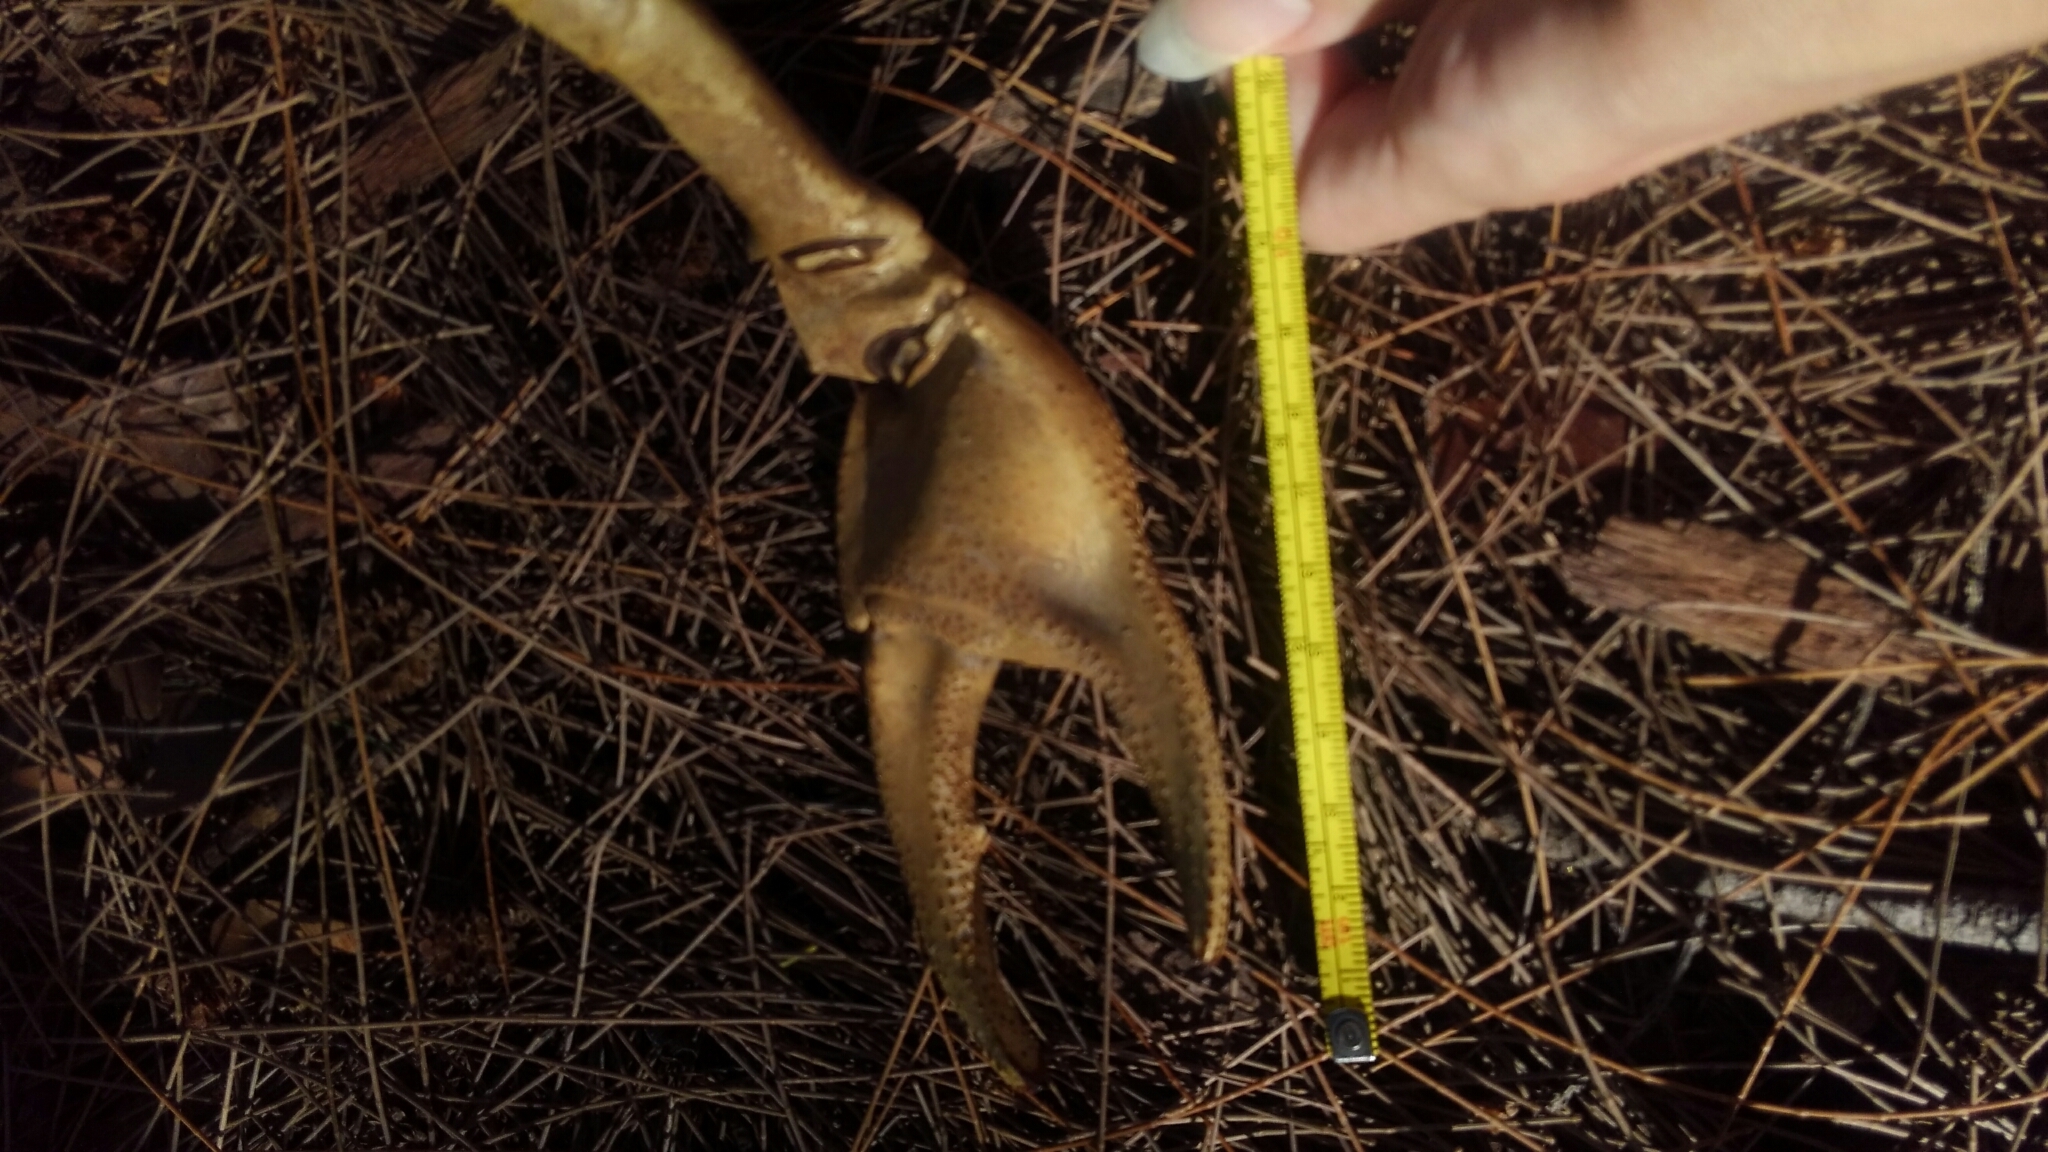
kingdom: Animalia
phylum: Arthropoda
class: Malacostraca
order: Decapoda
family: Gecarcinidae
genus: Cardisoma
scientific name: Cardisoma guanhumi
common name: Great land crab
